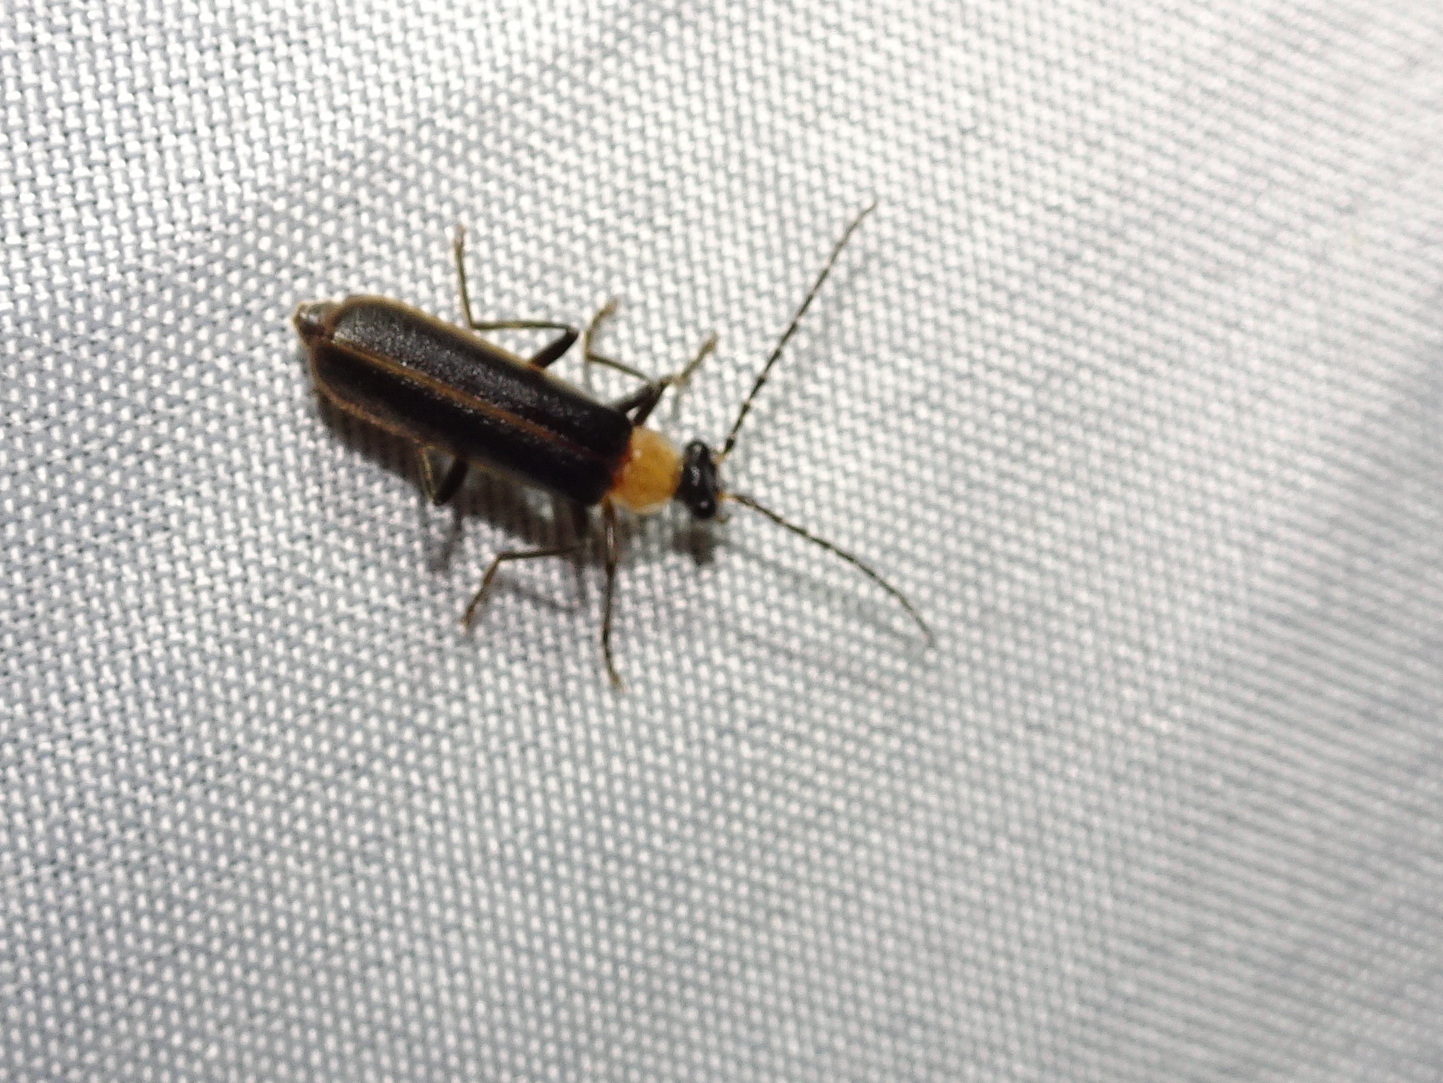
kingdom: Animalia
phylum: Arthropoda
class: Insecta
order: Coleoptera
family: Cantharidae
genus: Podabrus
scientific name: Podabrus flavicollis
